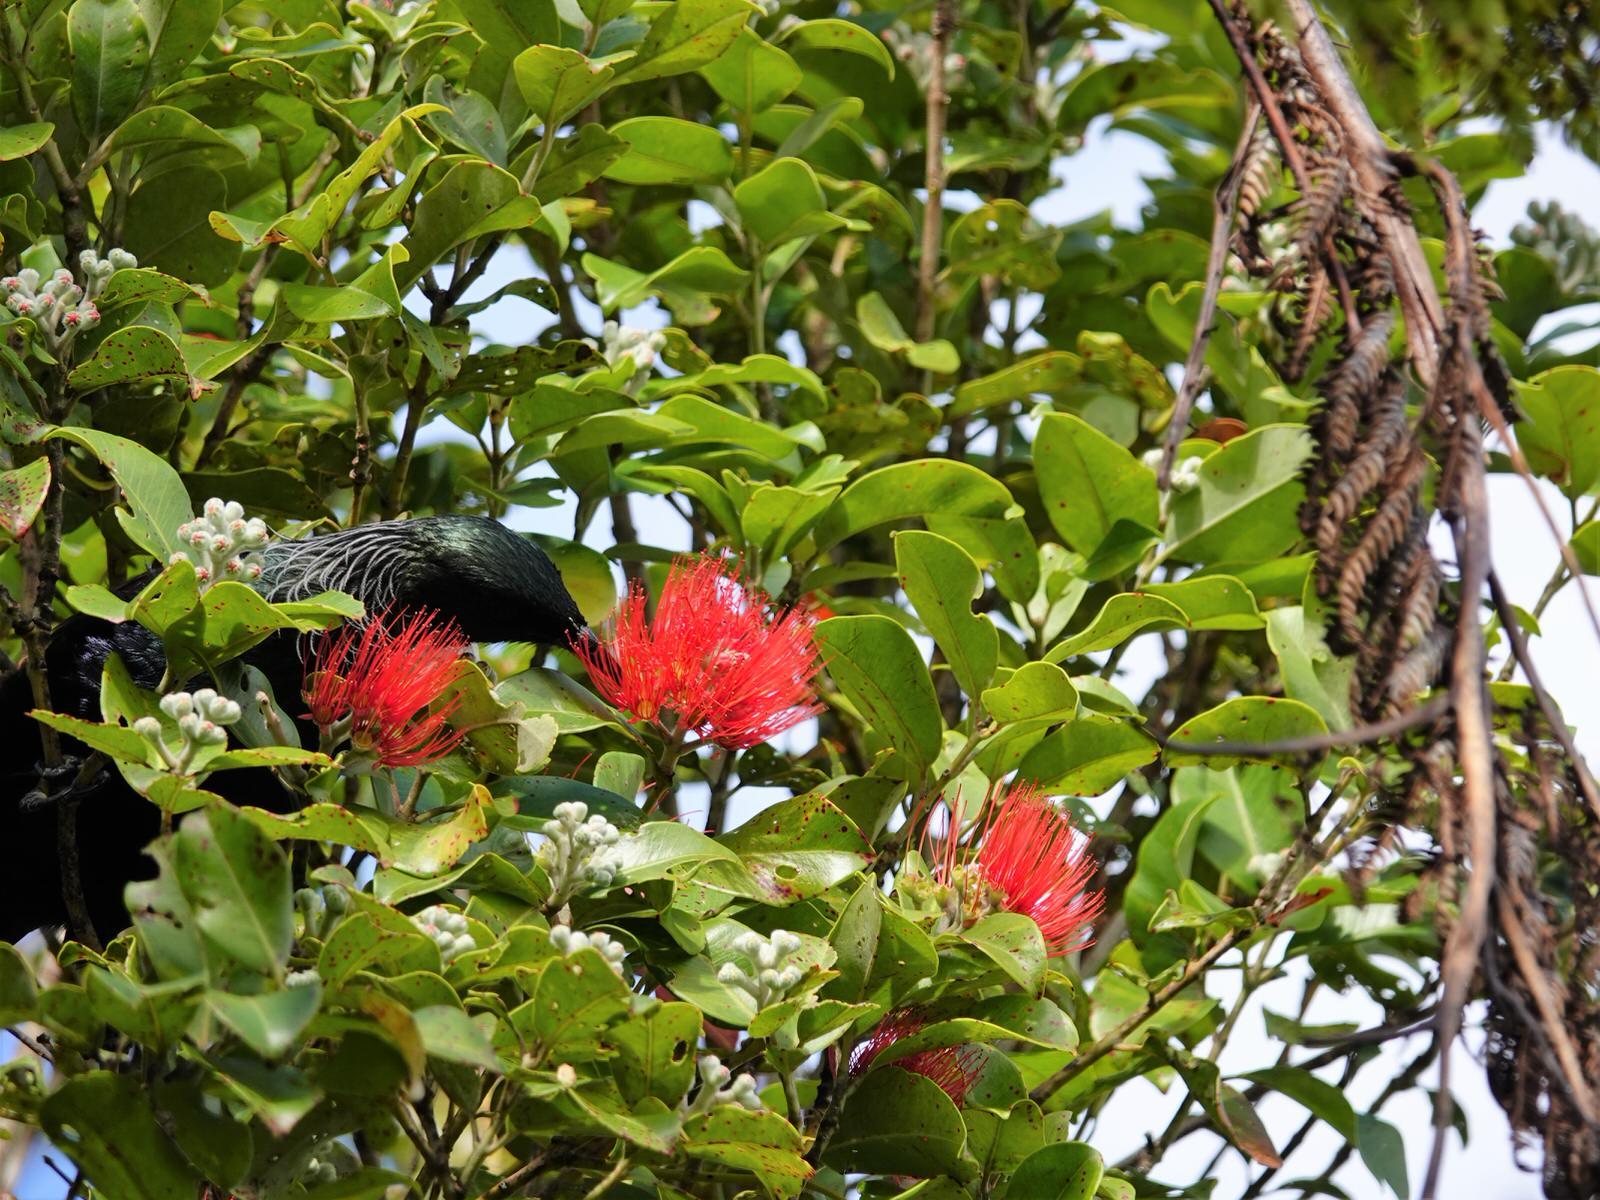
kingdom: Animalia
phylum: Chordata
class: Aves
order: Passeriformes
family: Meliphagidae
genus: Prosthemadera
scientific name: Prosthemadera novaeseelandiae
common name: Tui
